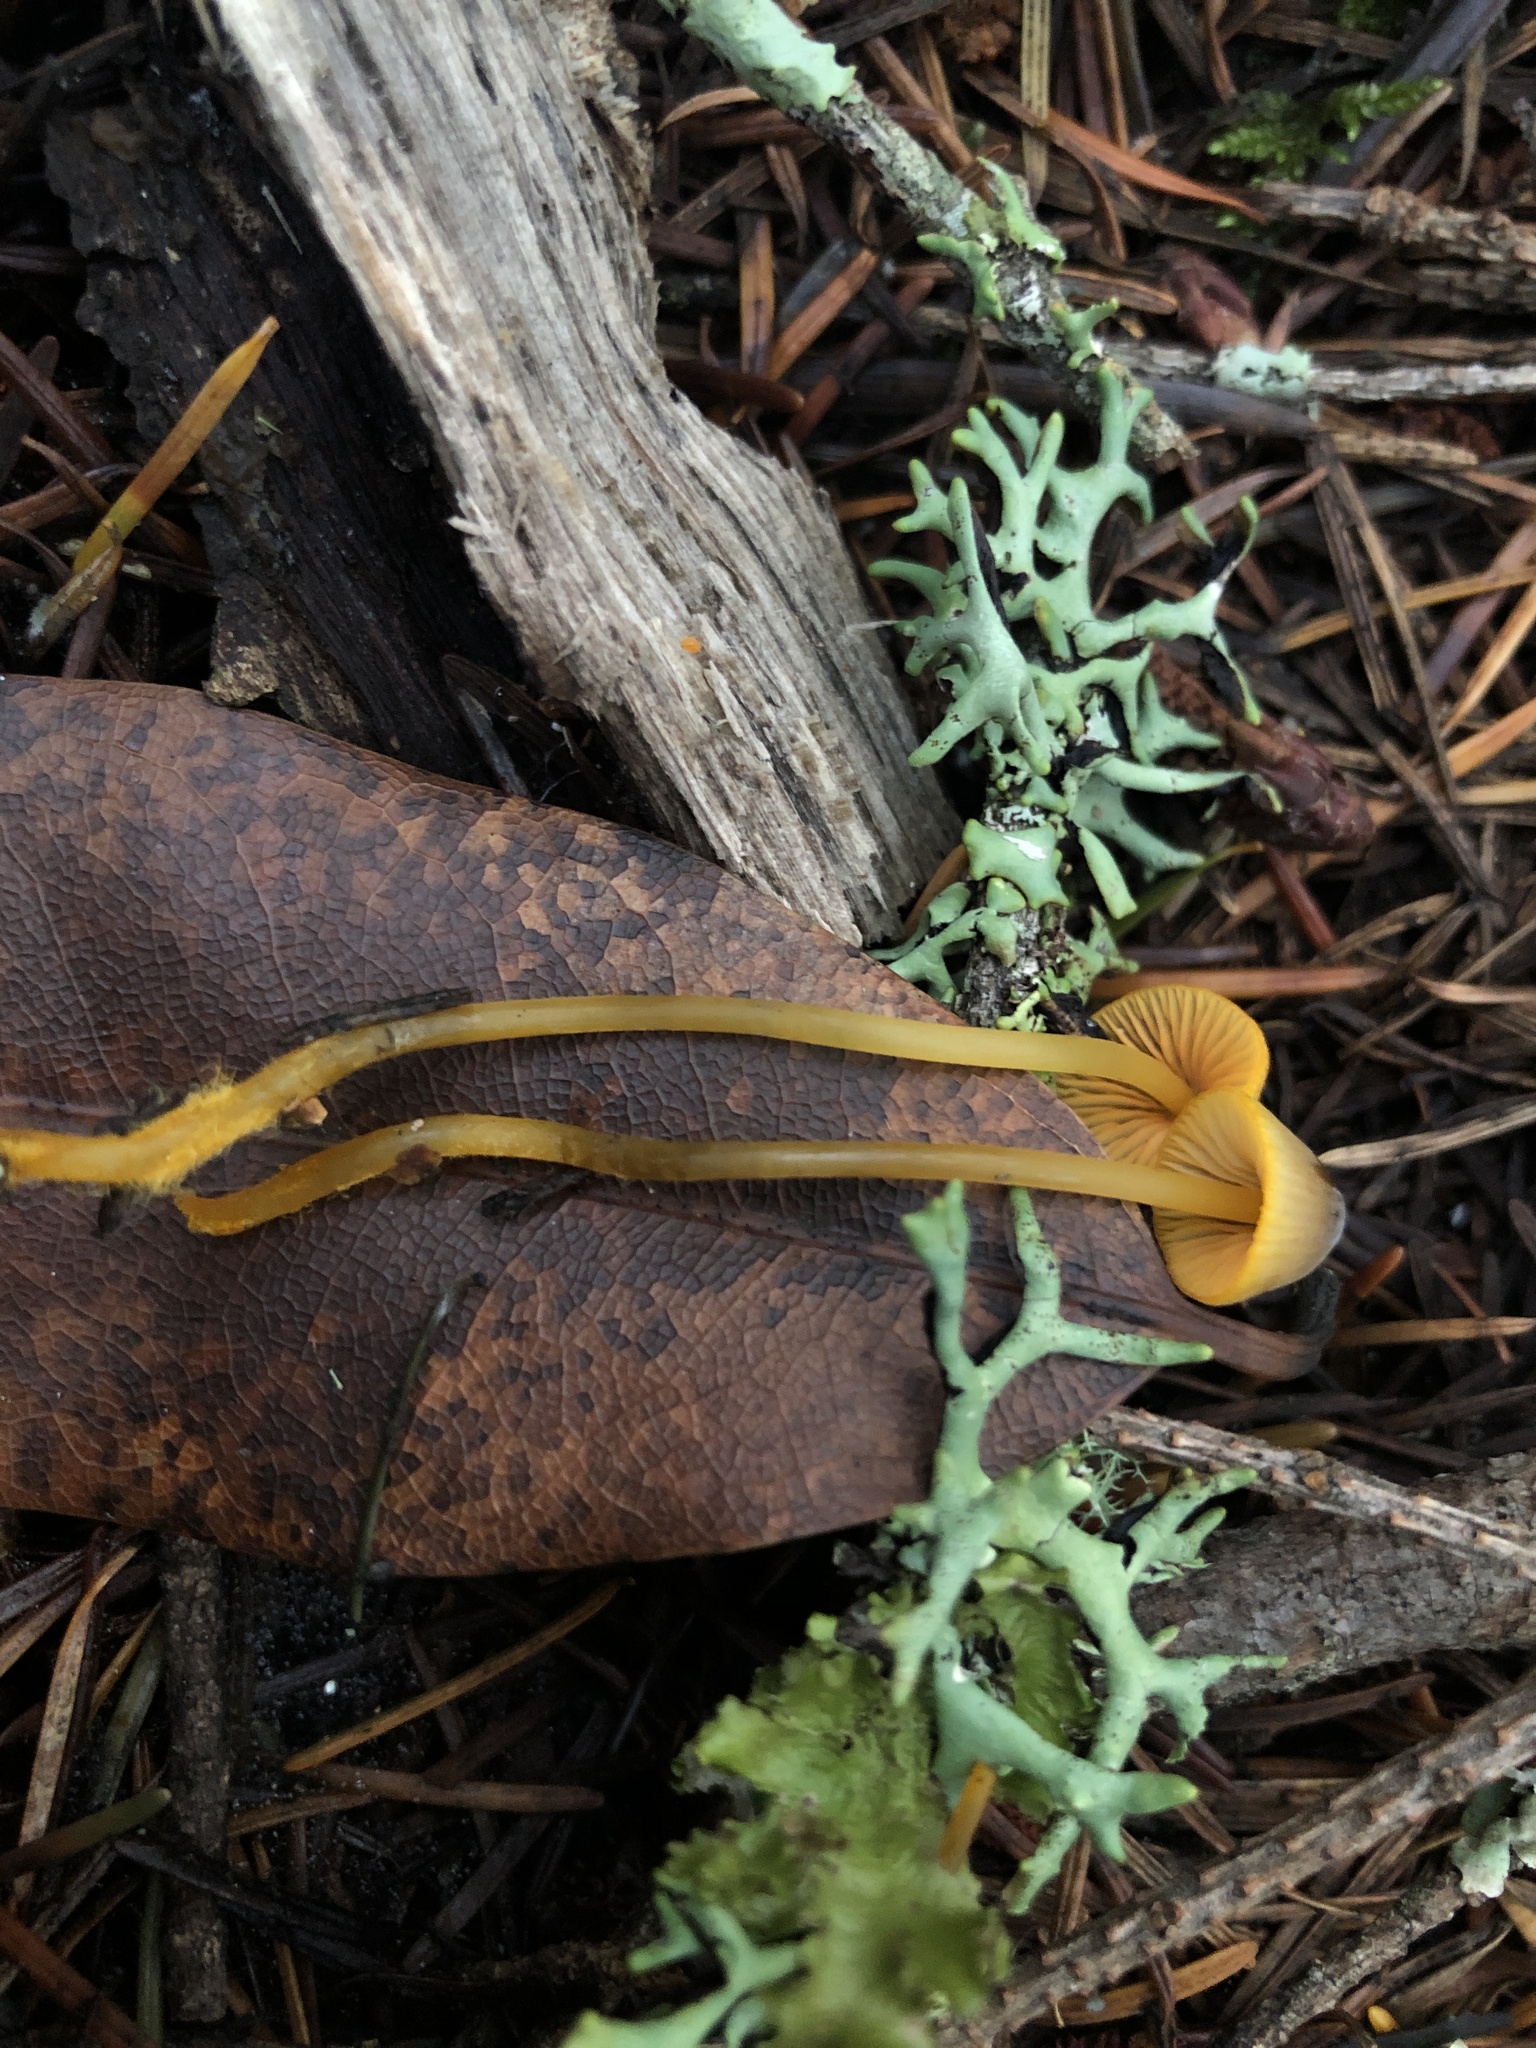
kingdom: Fungi
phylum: Basidiomycota
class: Agaricomycetes
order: Agaricales
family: Mycenaceae
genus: Mycena
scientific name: Mycena aurantiomarginata
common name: Golden edge bonnet
